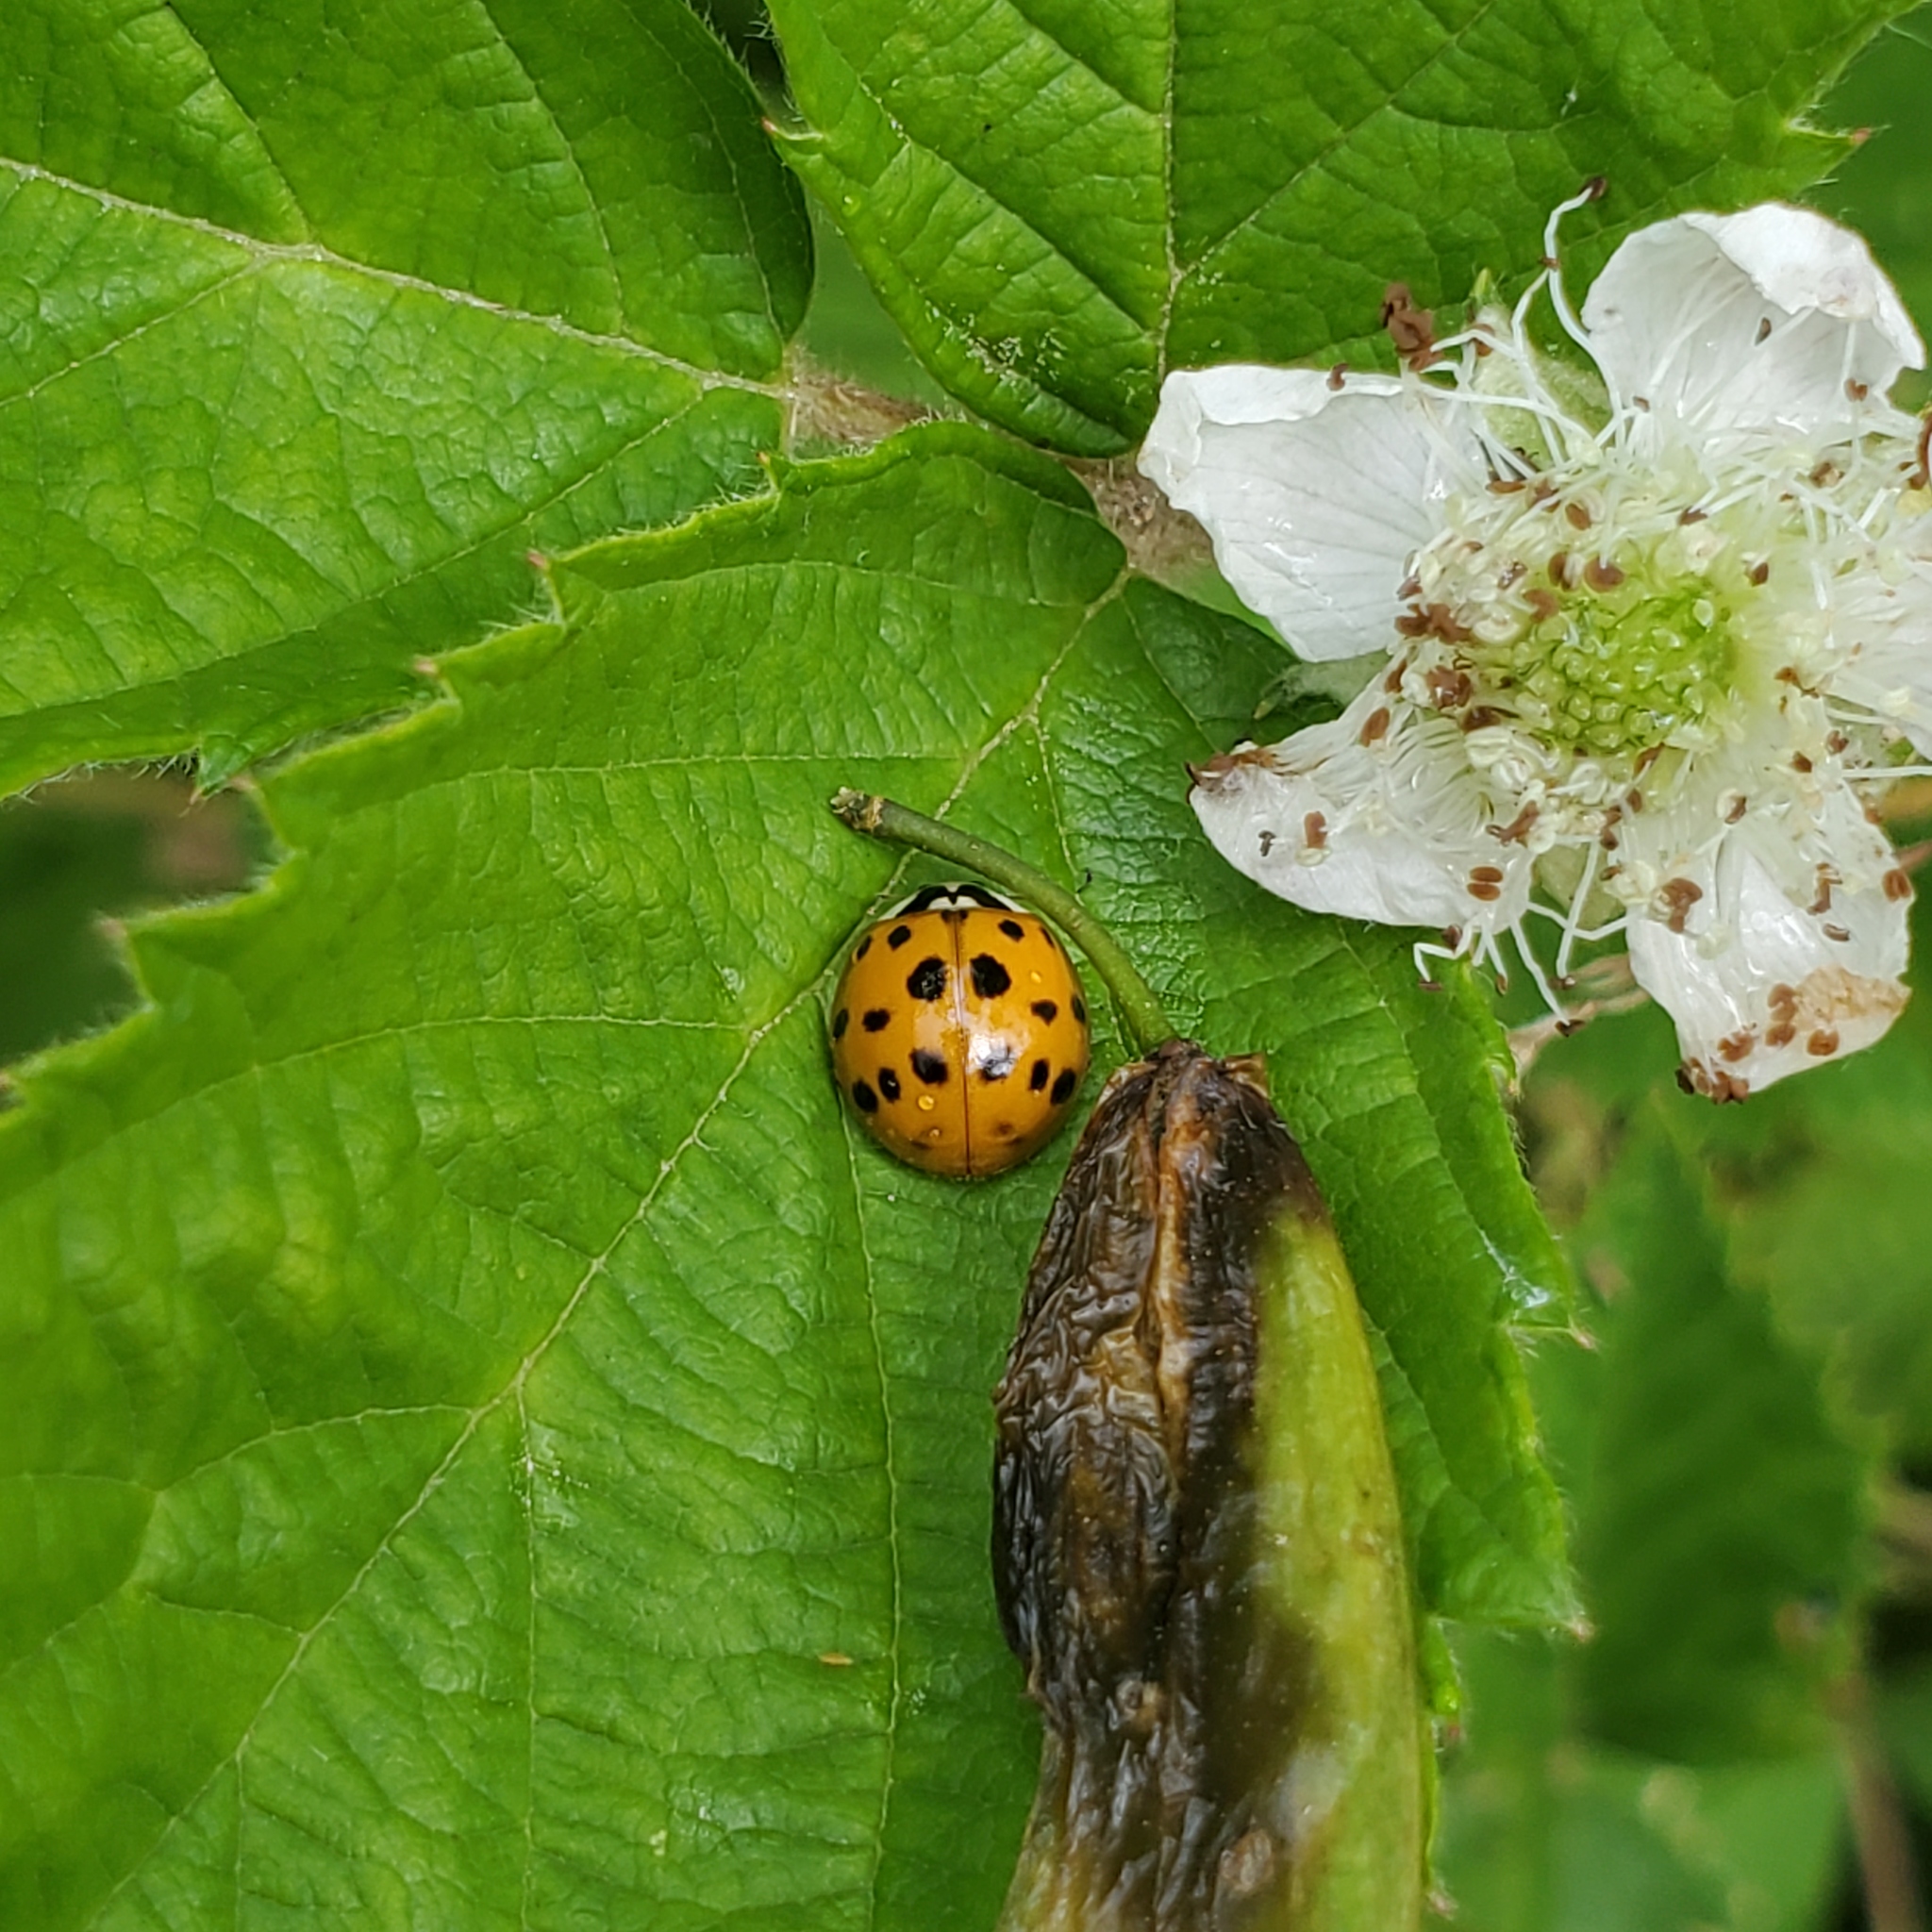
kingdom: Animalia
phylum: Arthropoda
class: Insecta
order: Coleoptera
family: Coccinellidae
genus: Harmonia
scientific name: Harmonia axyridis
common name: Harlequin ladybird
